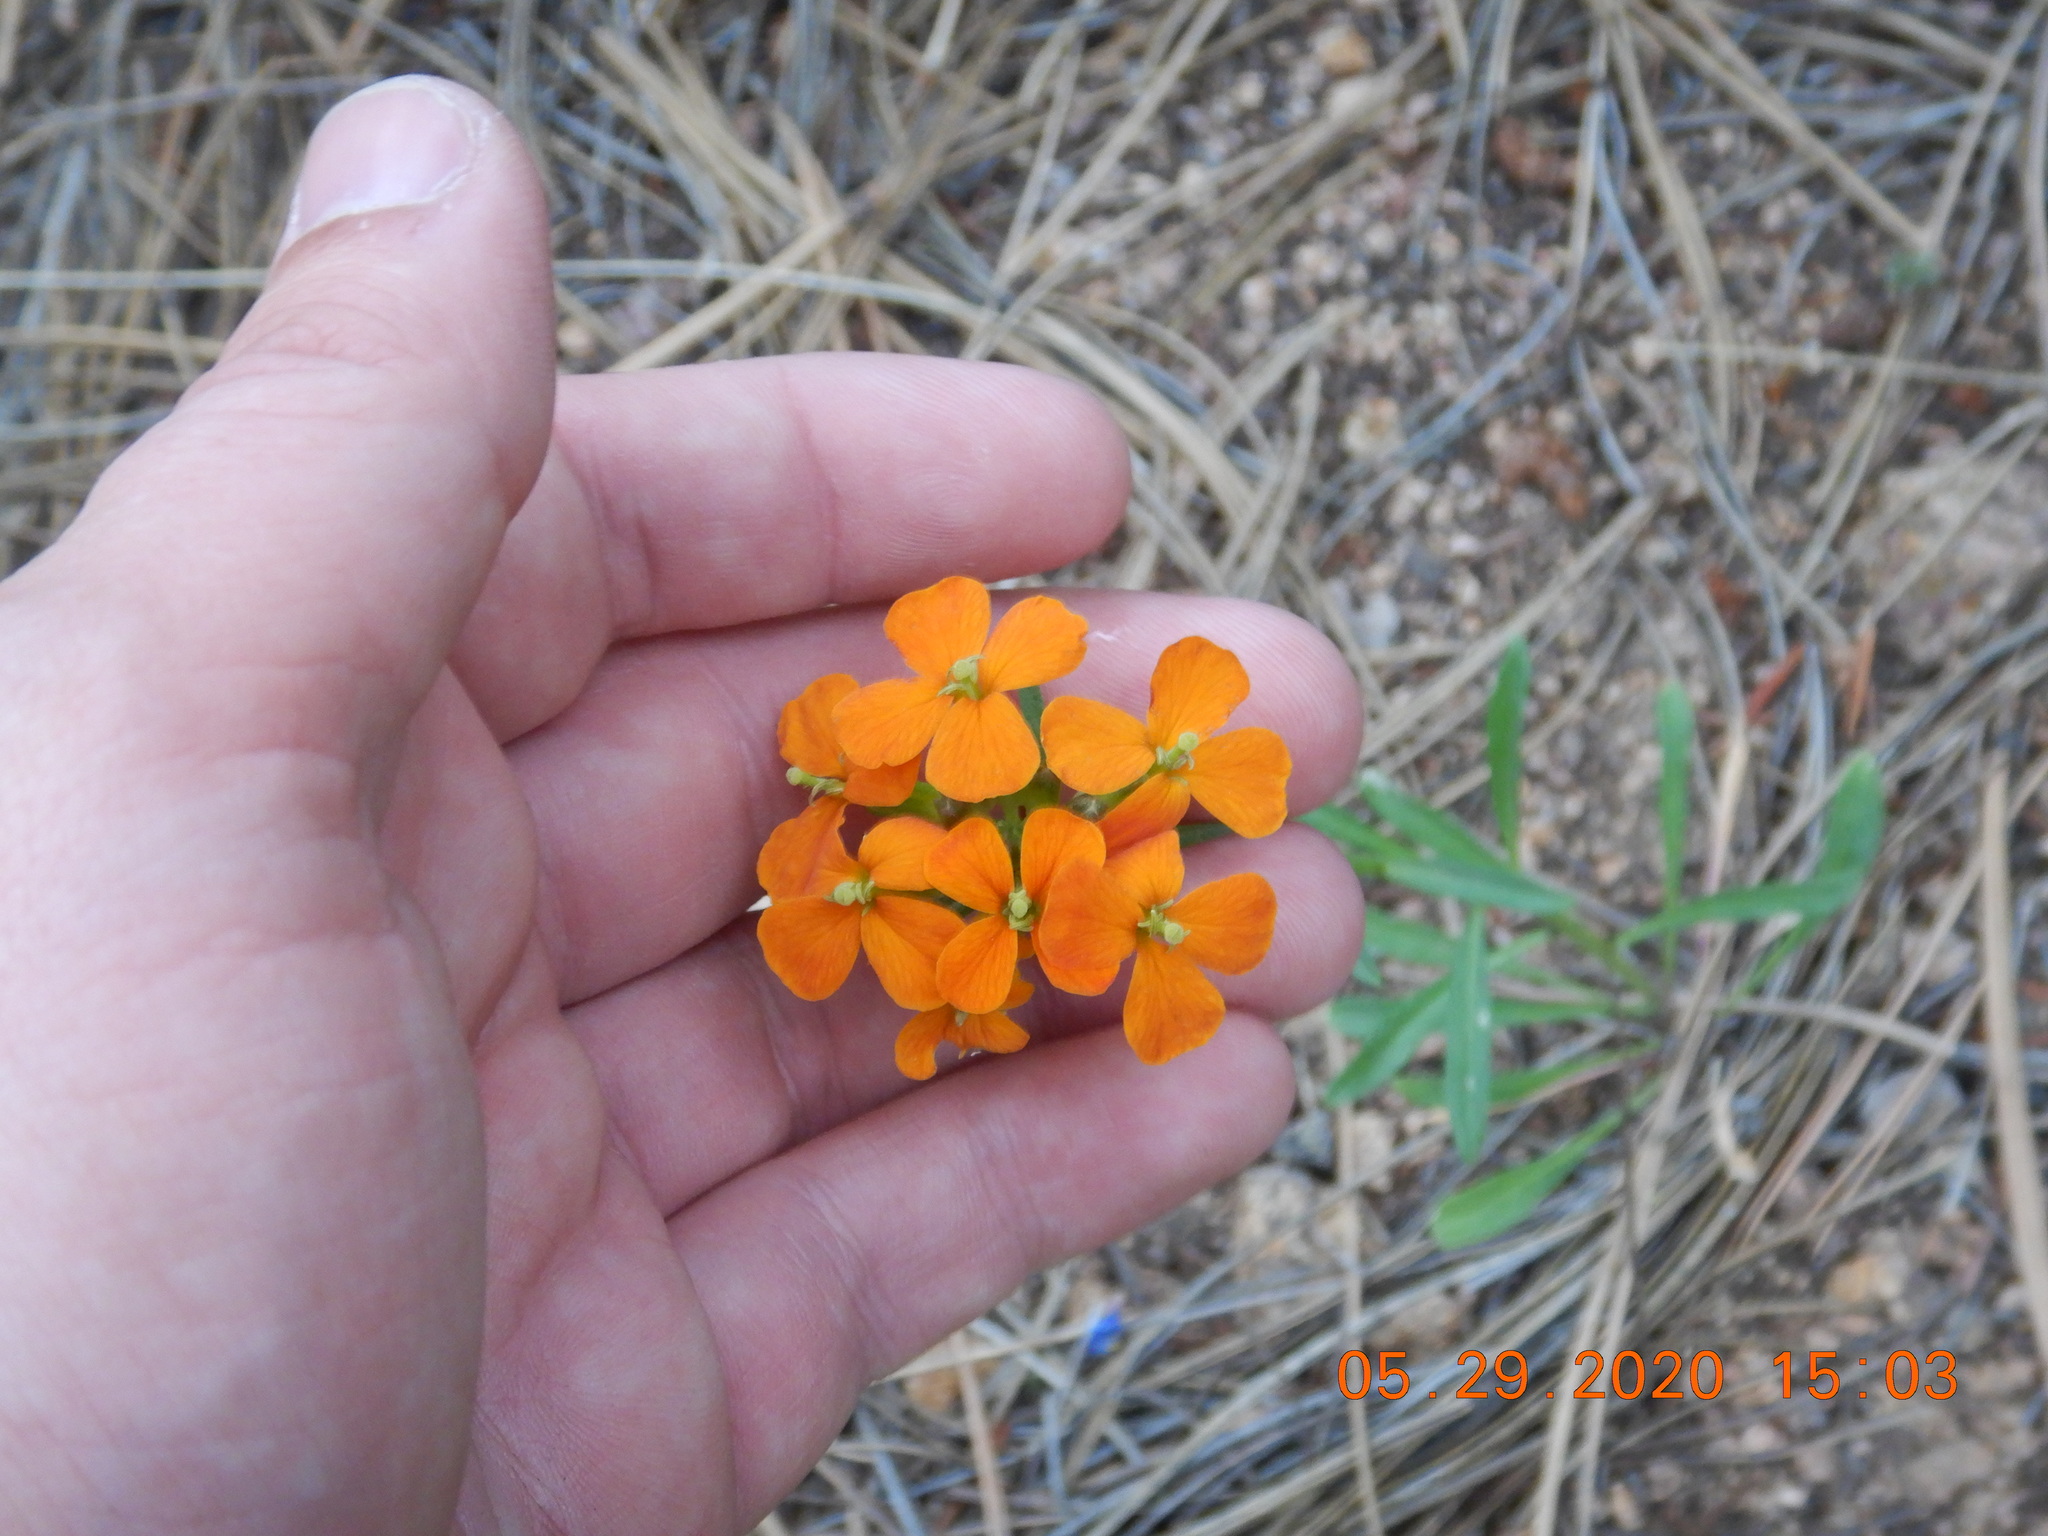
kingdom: Plantae
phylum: Tracheophyta
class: Magnoliopsida
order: Brassicales
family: Brassicaceae
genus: Erysimum
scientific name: Erysimum capitatum
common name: Western wallflower
